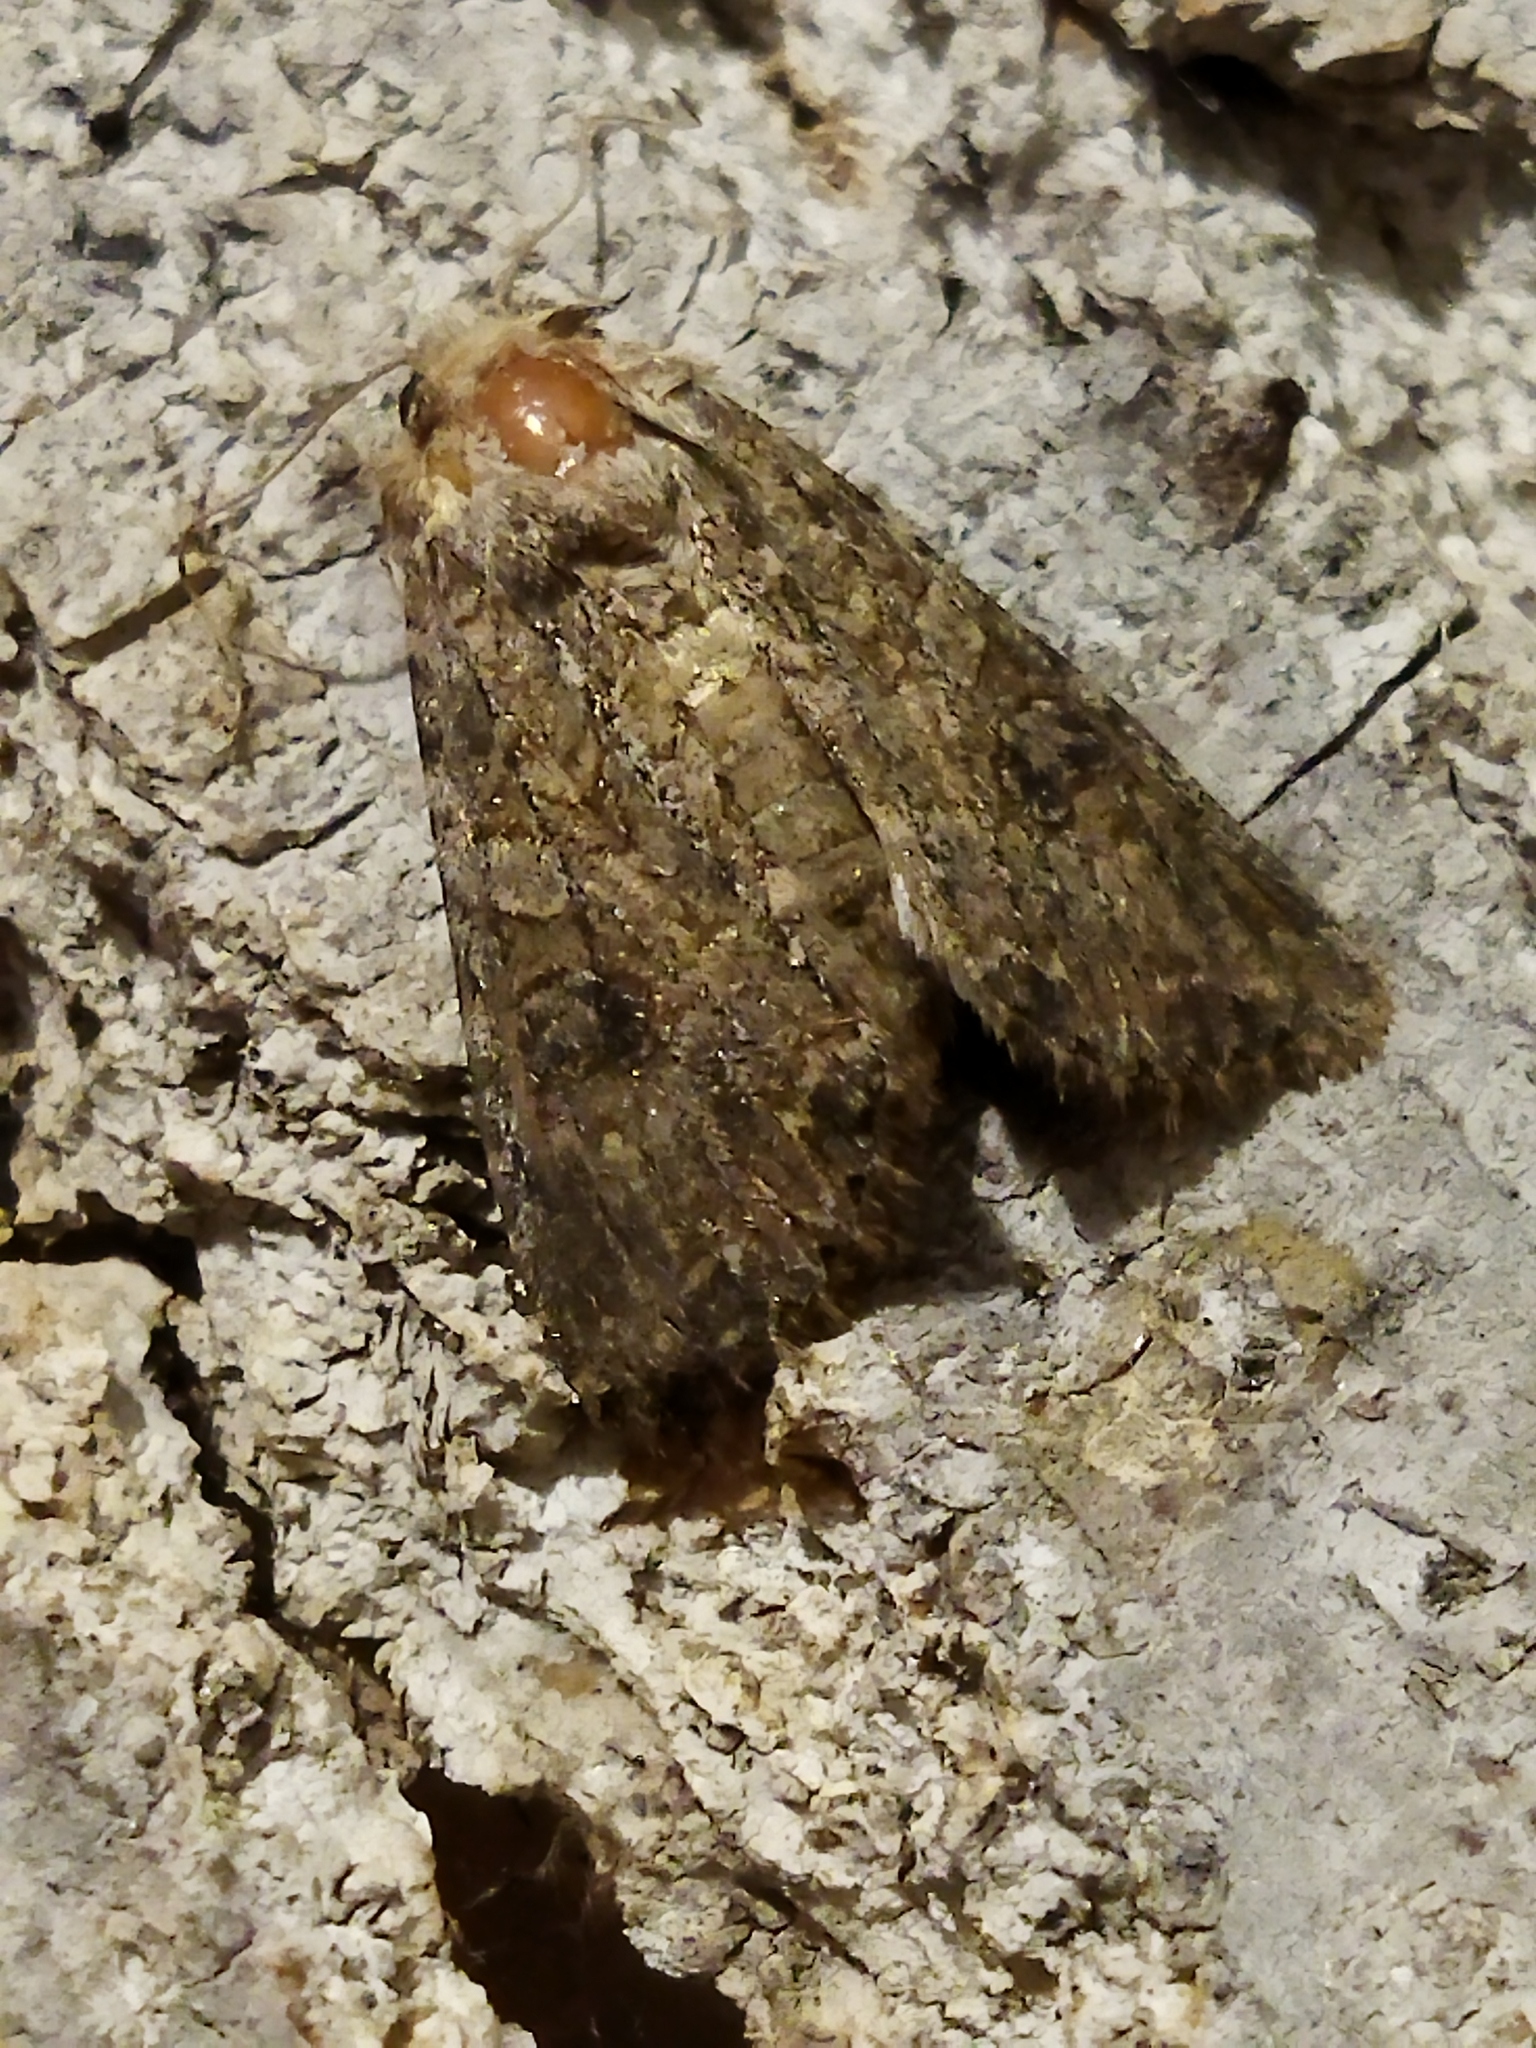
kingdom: Animalia
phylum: Arthropoda
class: Insecta
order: Lepidoptera
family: Noctuidae
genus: Anarta
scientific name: Anarta trifolii
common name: Clover cutworm moth
